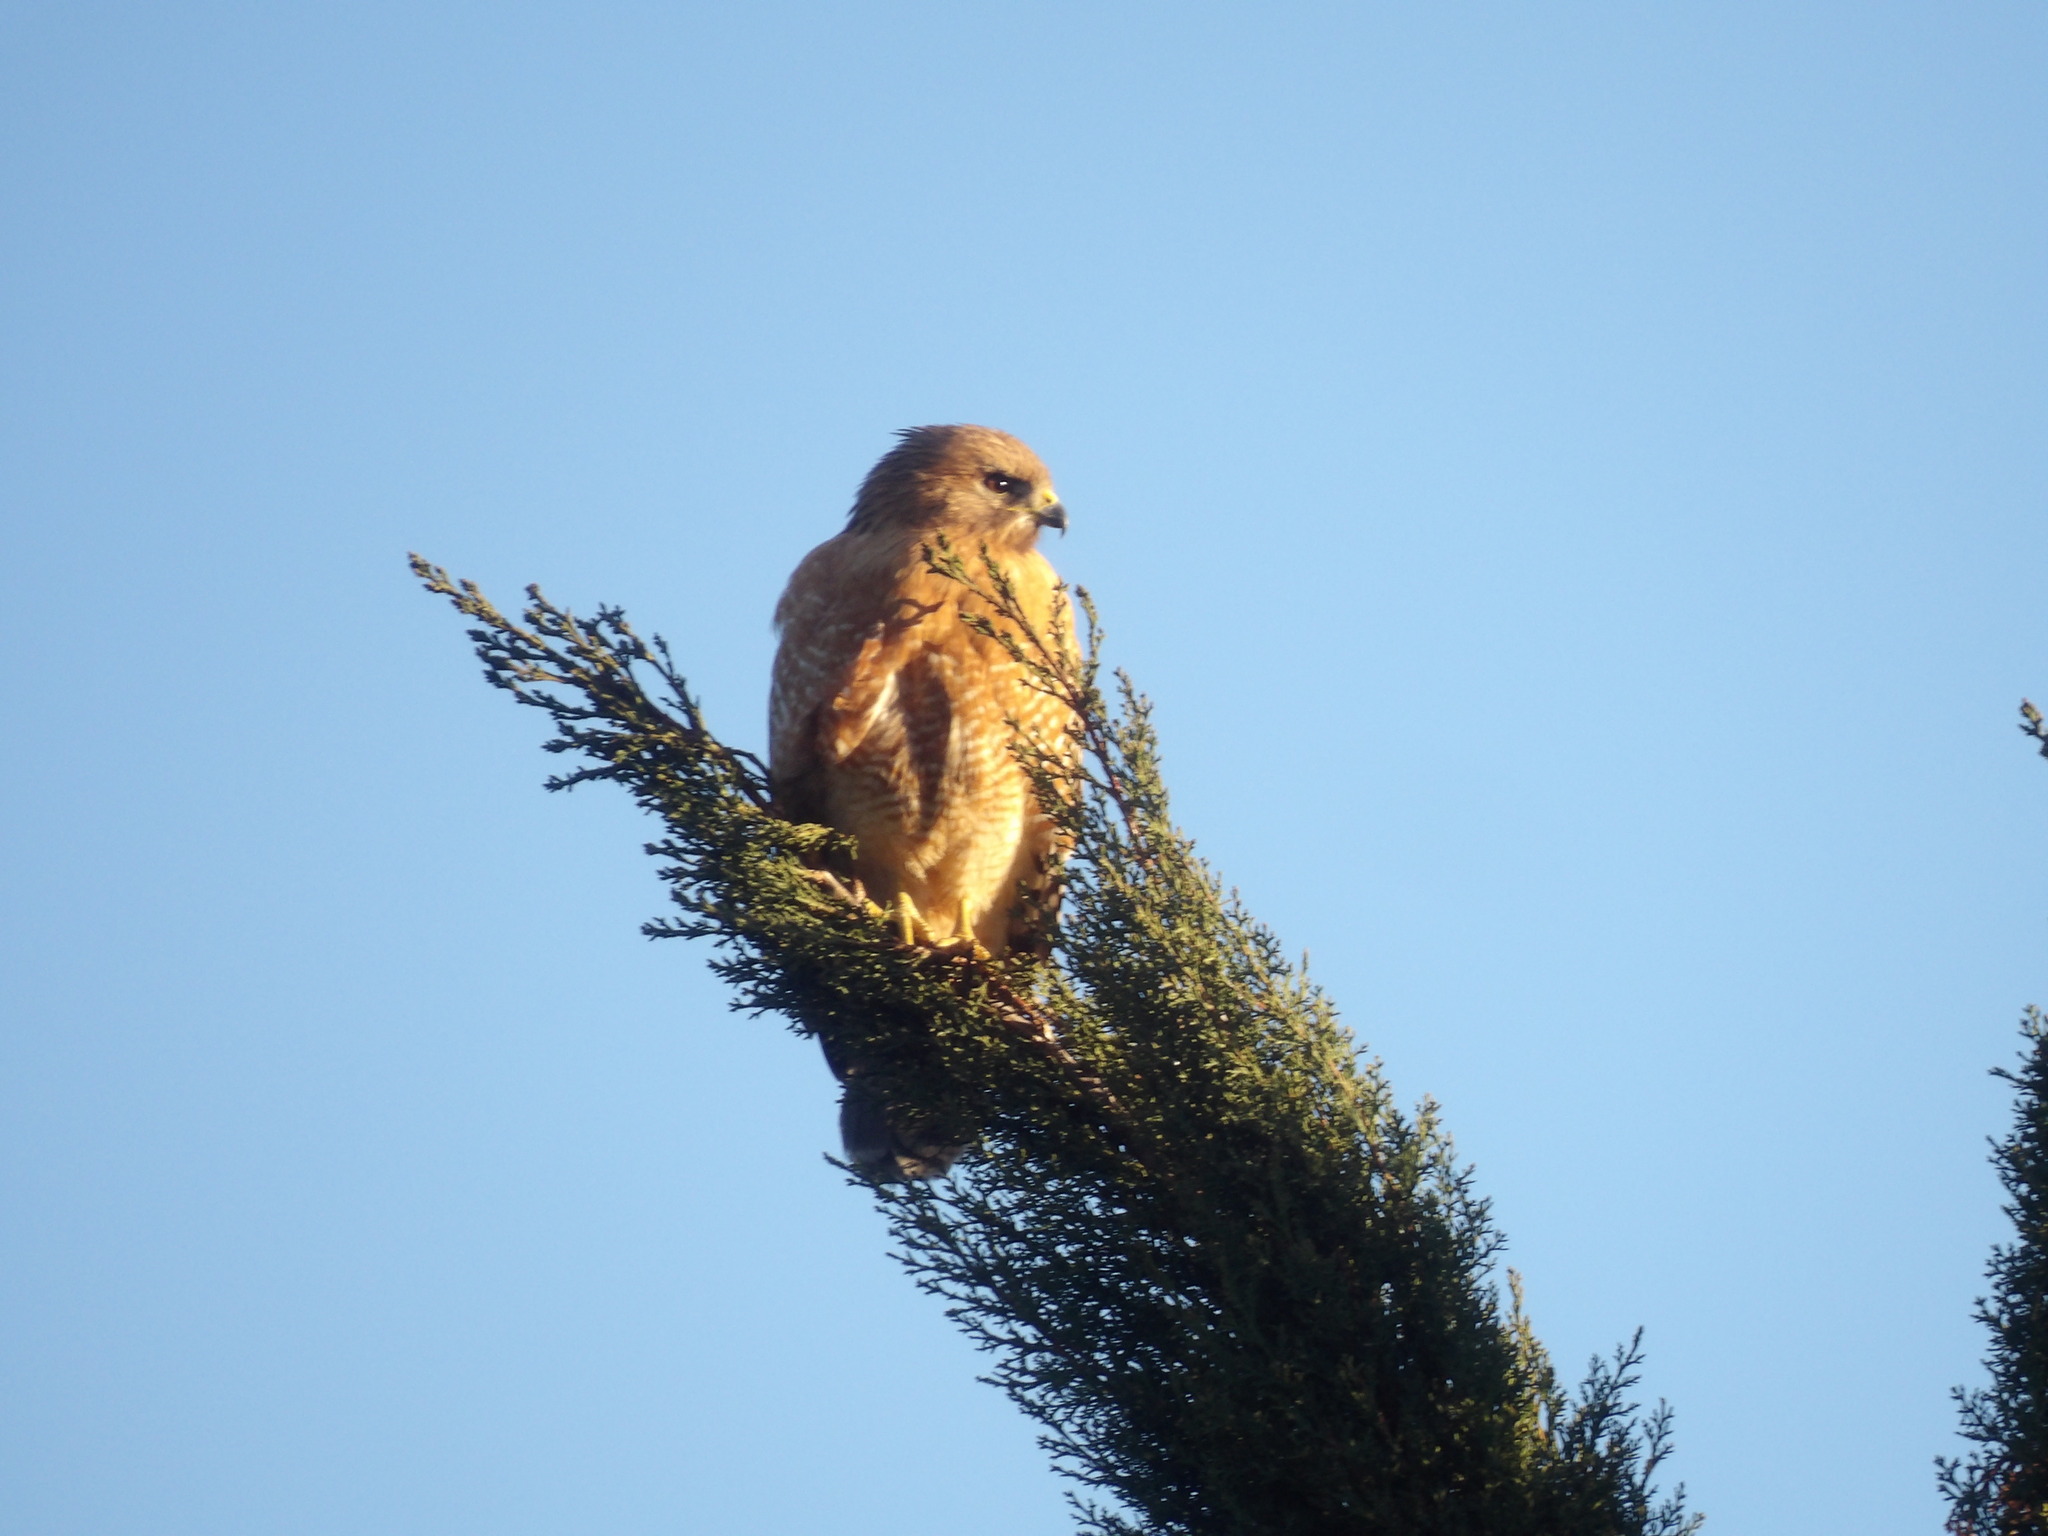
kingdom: Animalia
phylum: Chordata
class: Aves
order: Accipitriformes
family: Accipitridae
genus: Buteo
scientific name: Buteo lineatus
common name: Red-shouldered hawk
